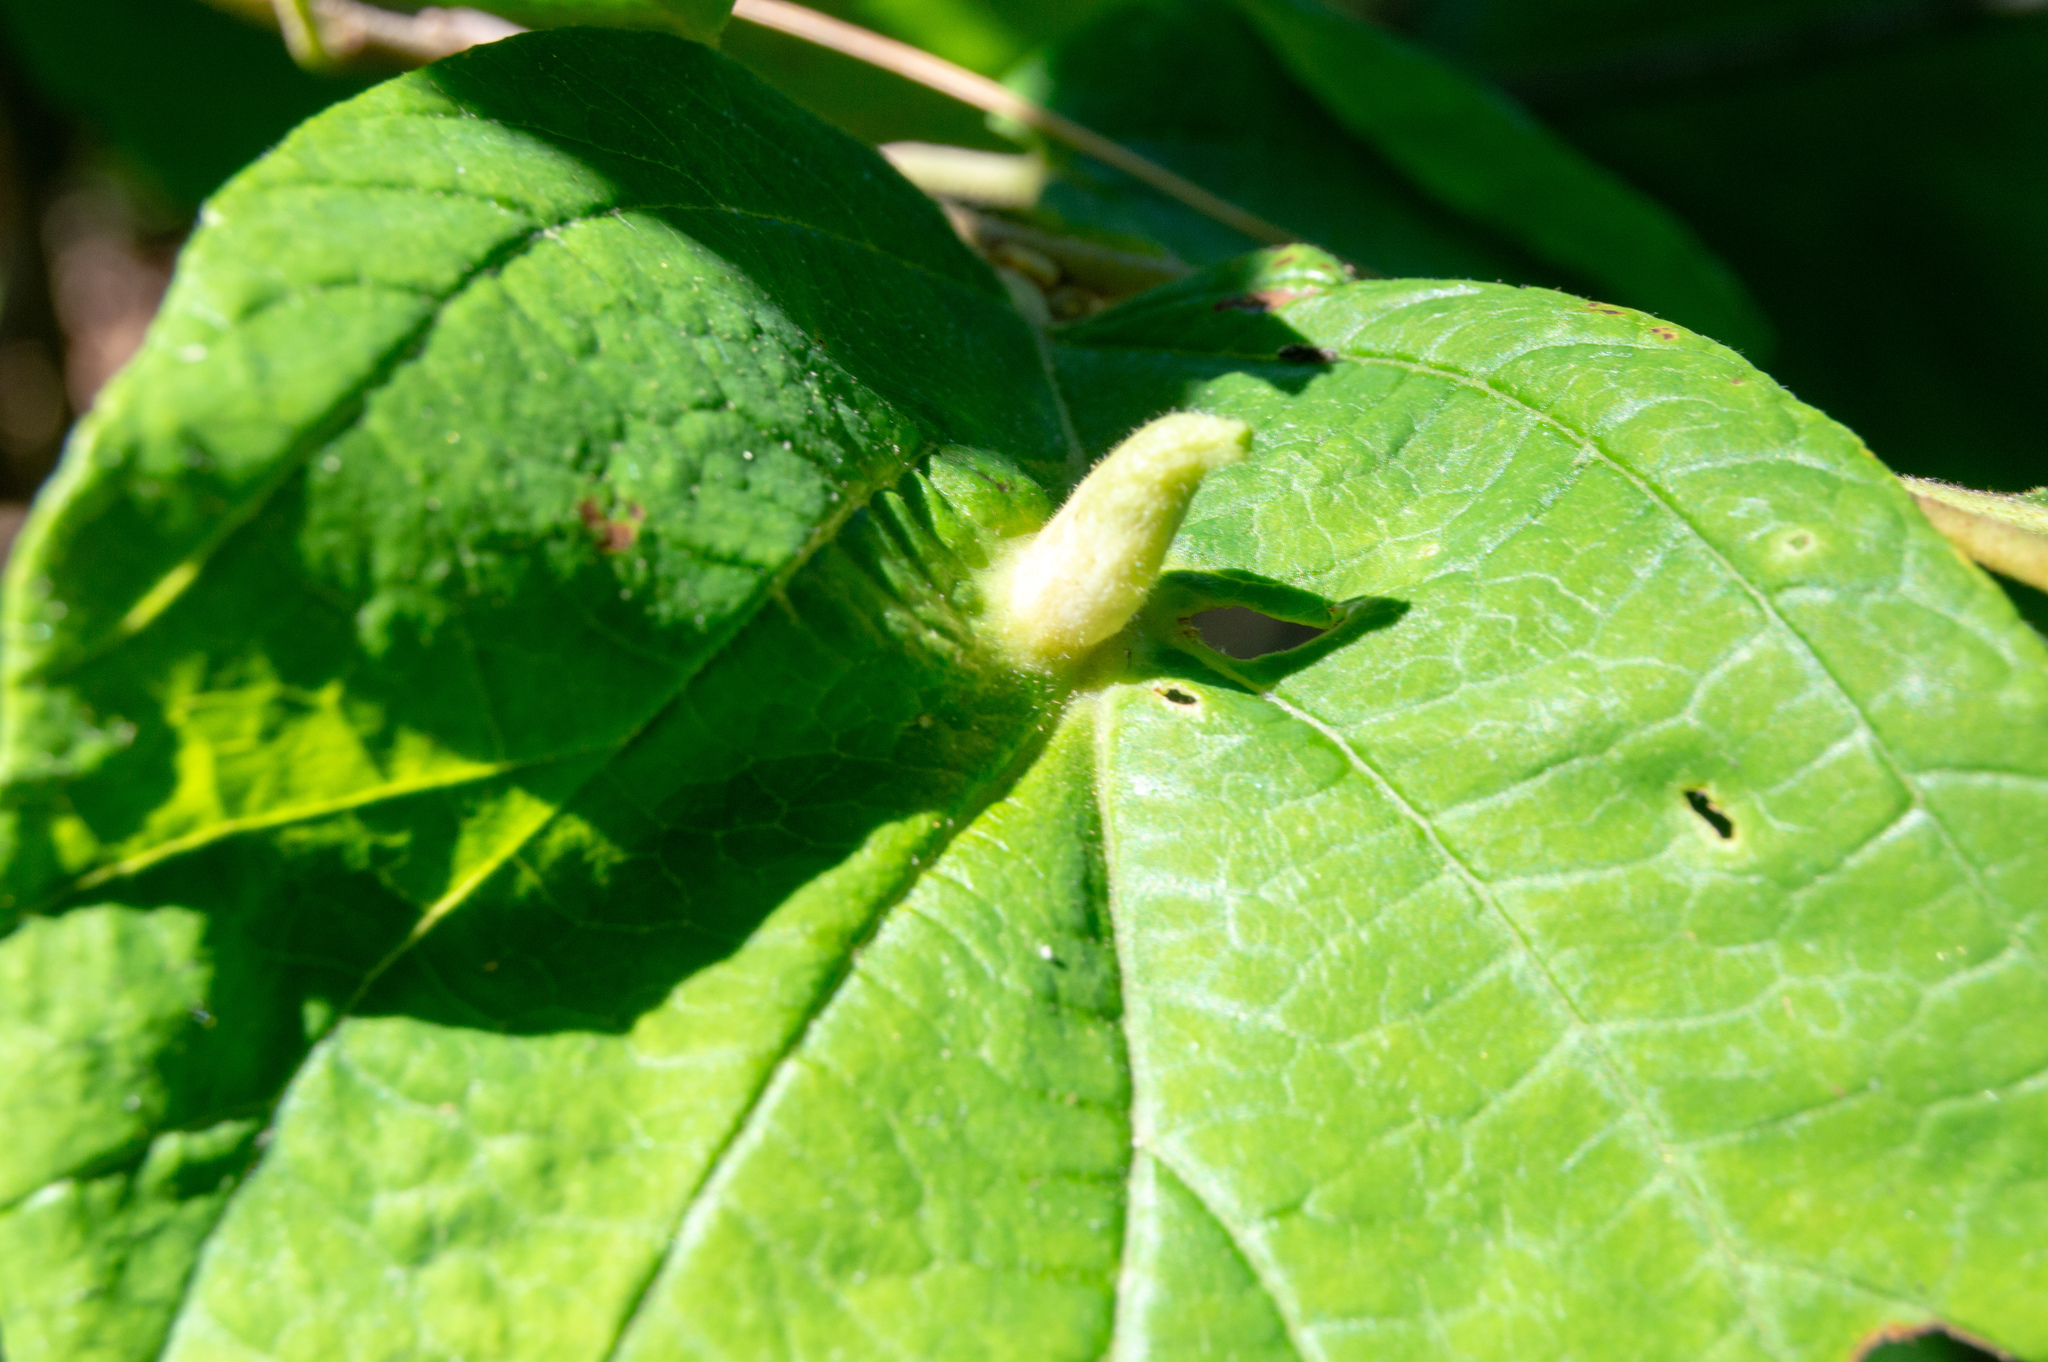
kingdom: Animalia
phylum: Arthropoda
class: Insecta
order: Hemiptera
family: Aphididae
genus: Hormaphis
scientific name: Hormaphis hamamelidis
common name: Witch-hazel cone gall aphid
